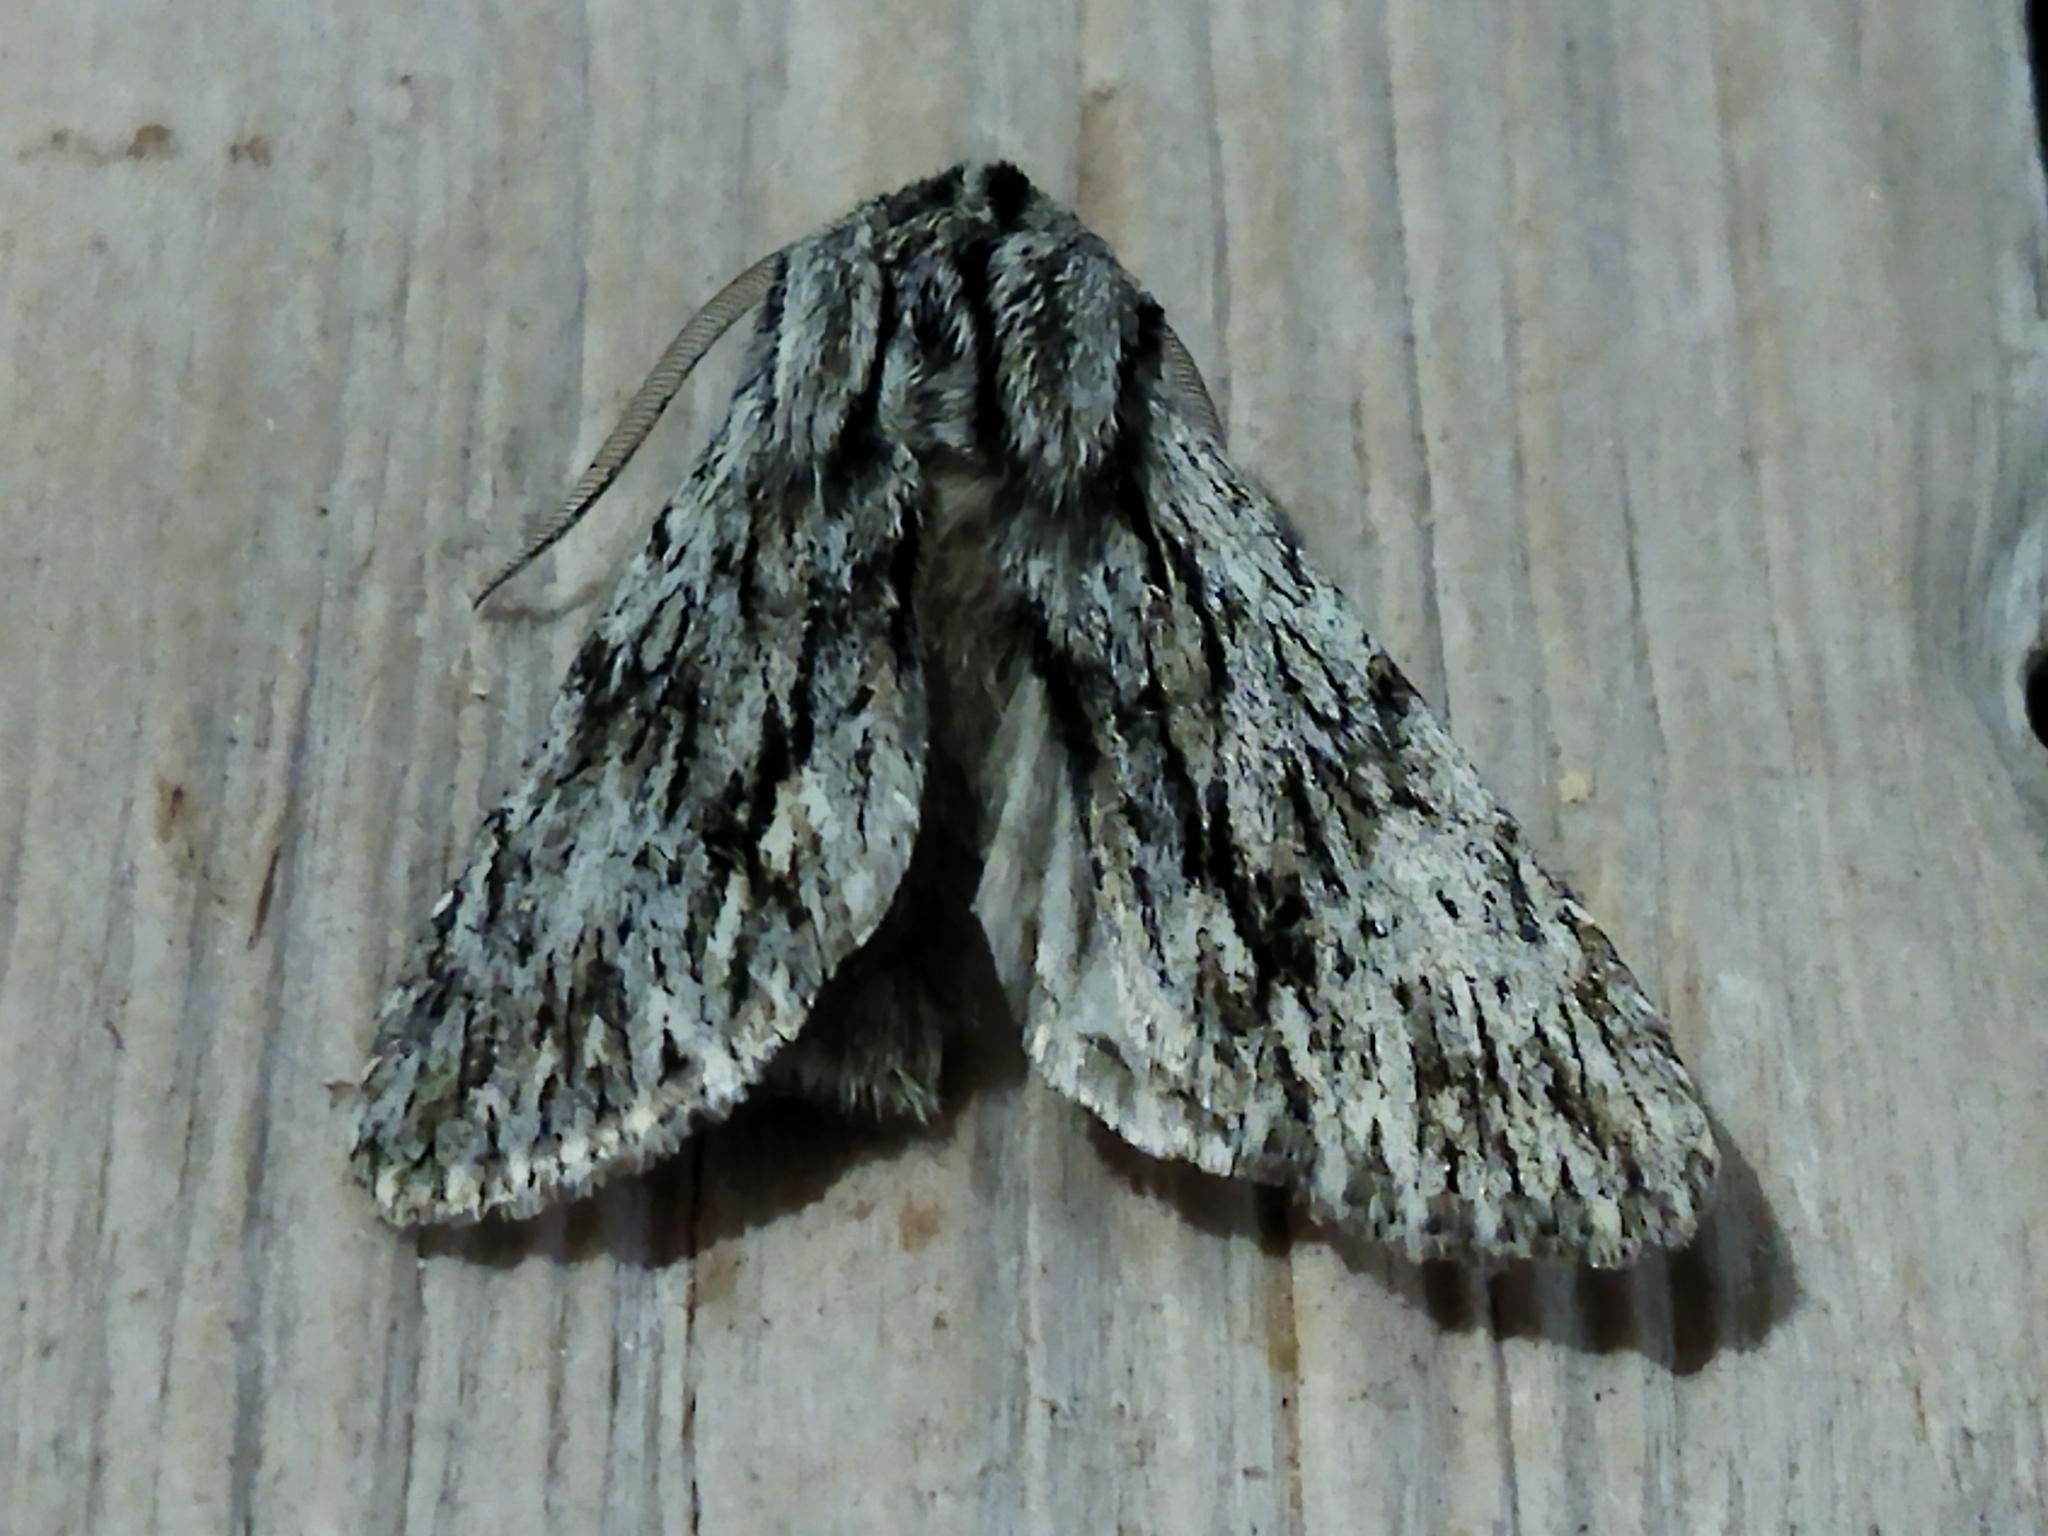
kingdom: Animalia
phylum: Arthropoda
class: Insecta
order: Lepidoptera
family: Noctuidae
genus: Asteroscopus
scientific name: Asteroscopus sphinx
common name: The sprawler
